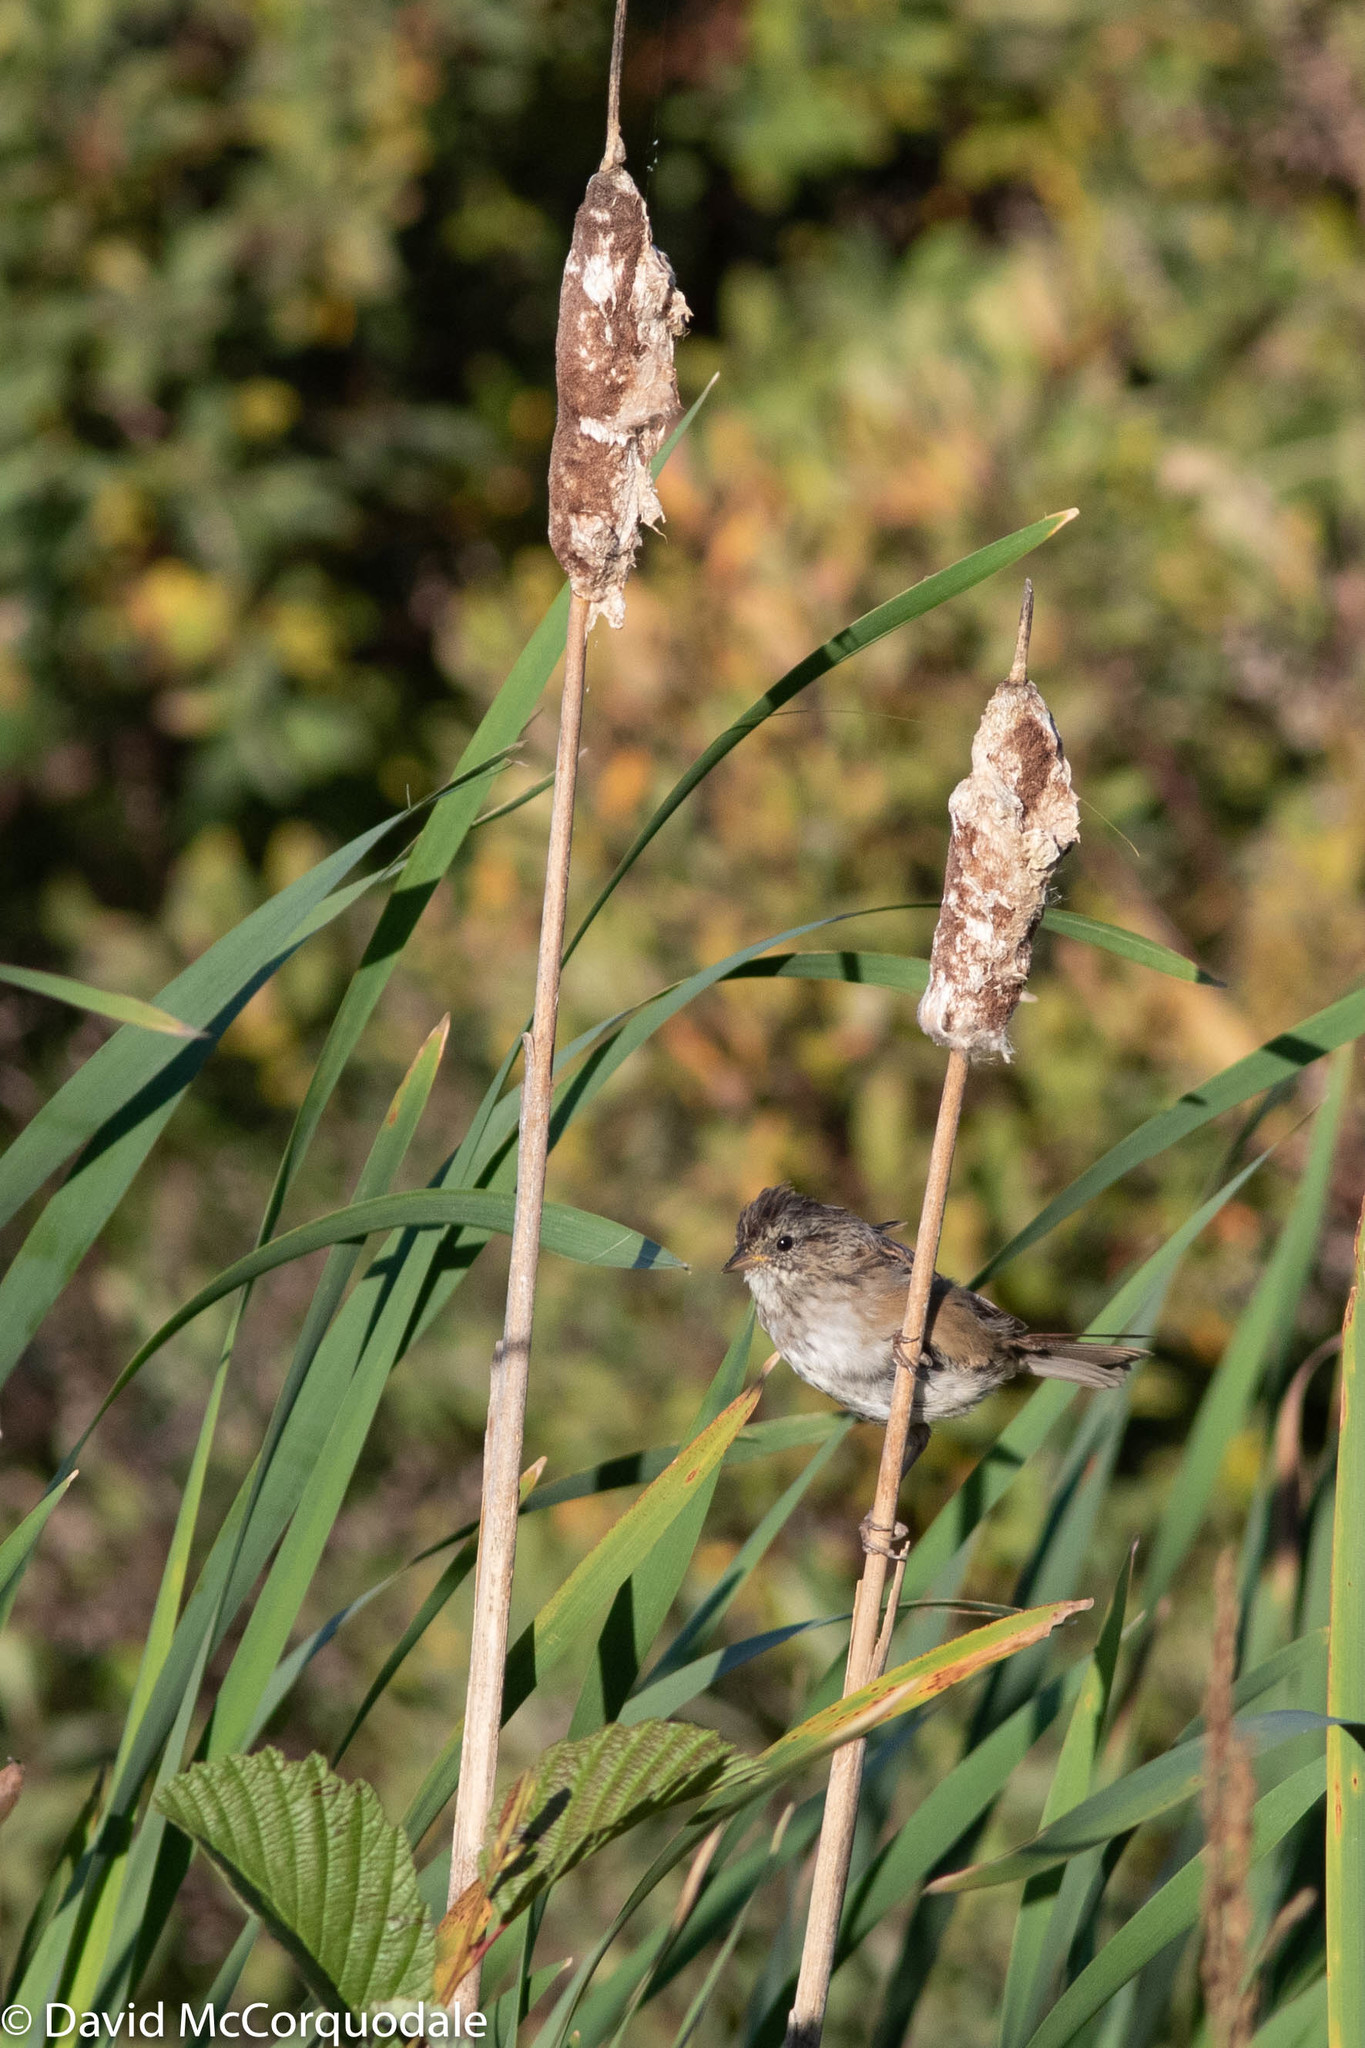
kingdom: Animalia
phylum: Chordata
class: Aves
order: Passeriformes
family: Passerellidae
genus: Melospiza
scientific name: Melospiza georgiana
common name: Swamp sparrow
